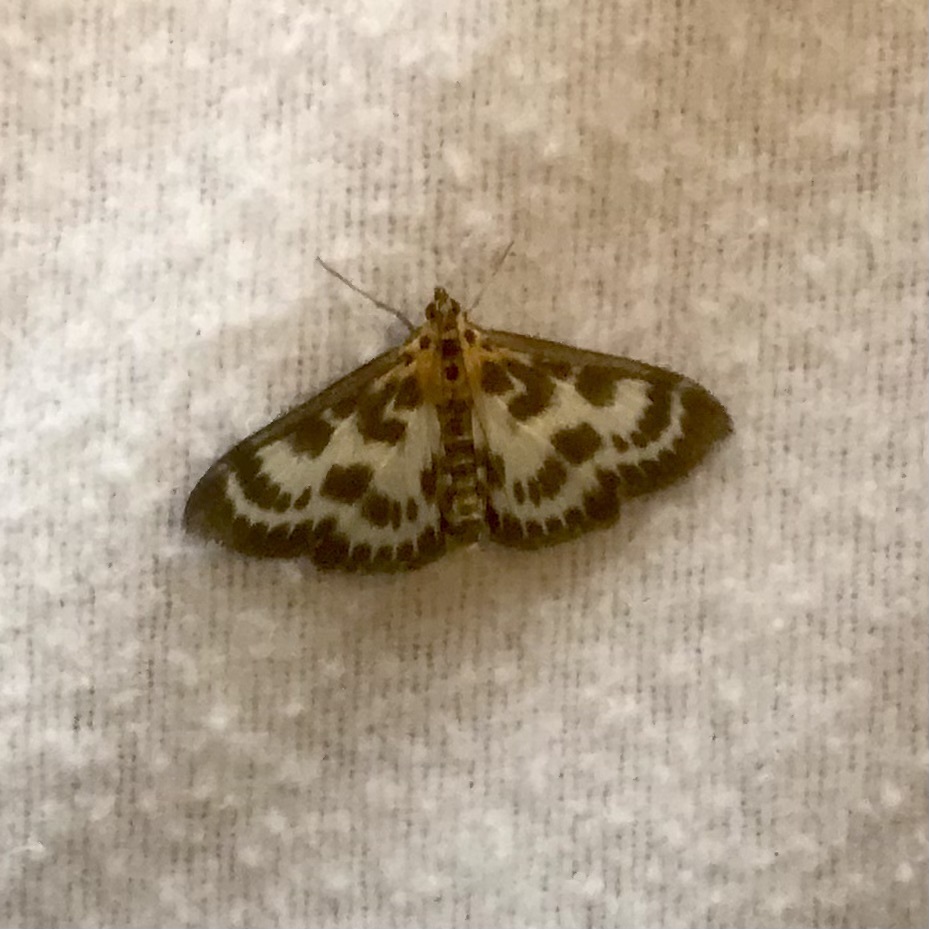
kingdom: Animalia
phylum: Arthropoda
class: Insecta
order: Lepidoptera
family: Crambidae
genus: Anania
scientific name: Anania hortulata
